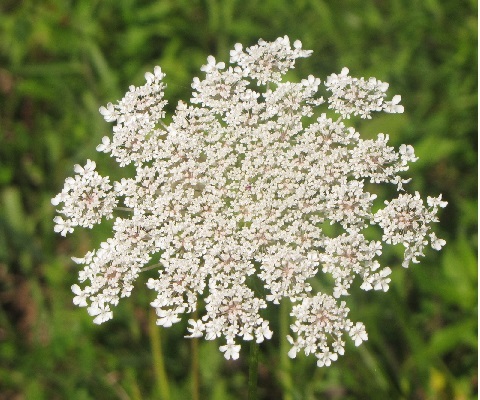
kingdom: Plantae
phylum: Tracheophyta
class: Magnoliopsida
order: Apiales
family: Apiaceae
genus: Daucus
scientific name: Daucus carota
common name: Wild carrot
